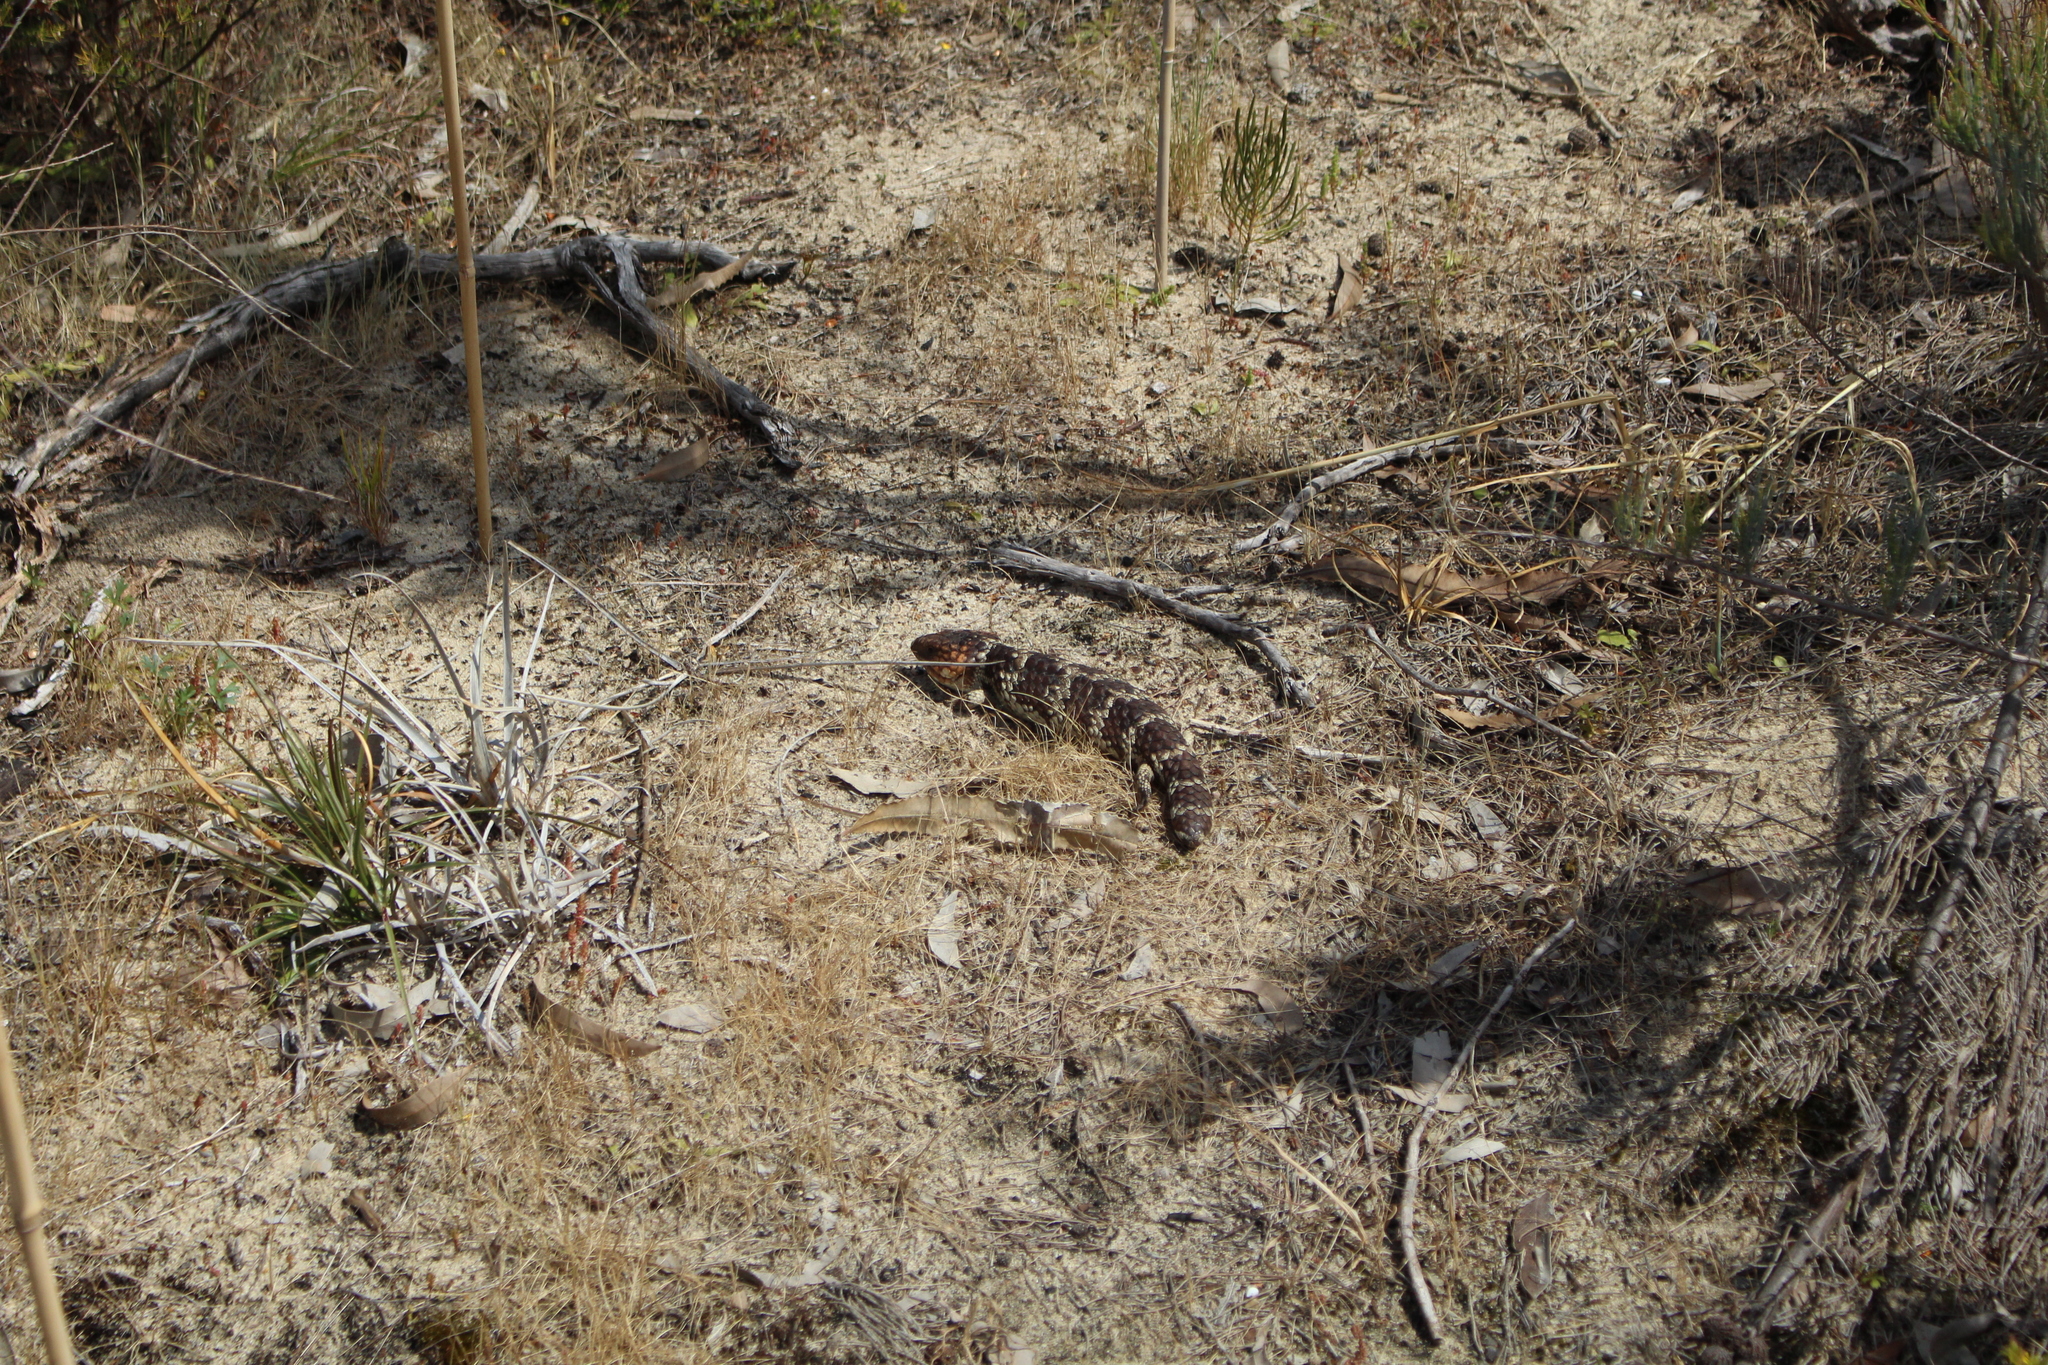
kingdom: Animalia
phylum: Chordata
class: Squamata
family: Scincidae
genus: Tiliqua
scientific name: Tiliqua rugosa
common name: Pinecone lizard
